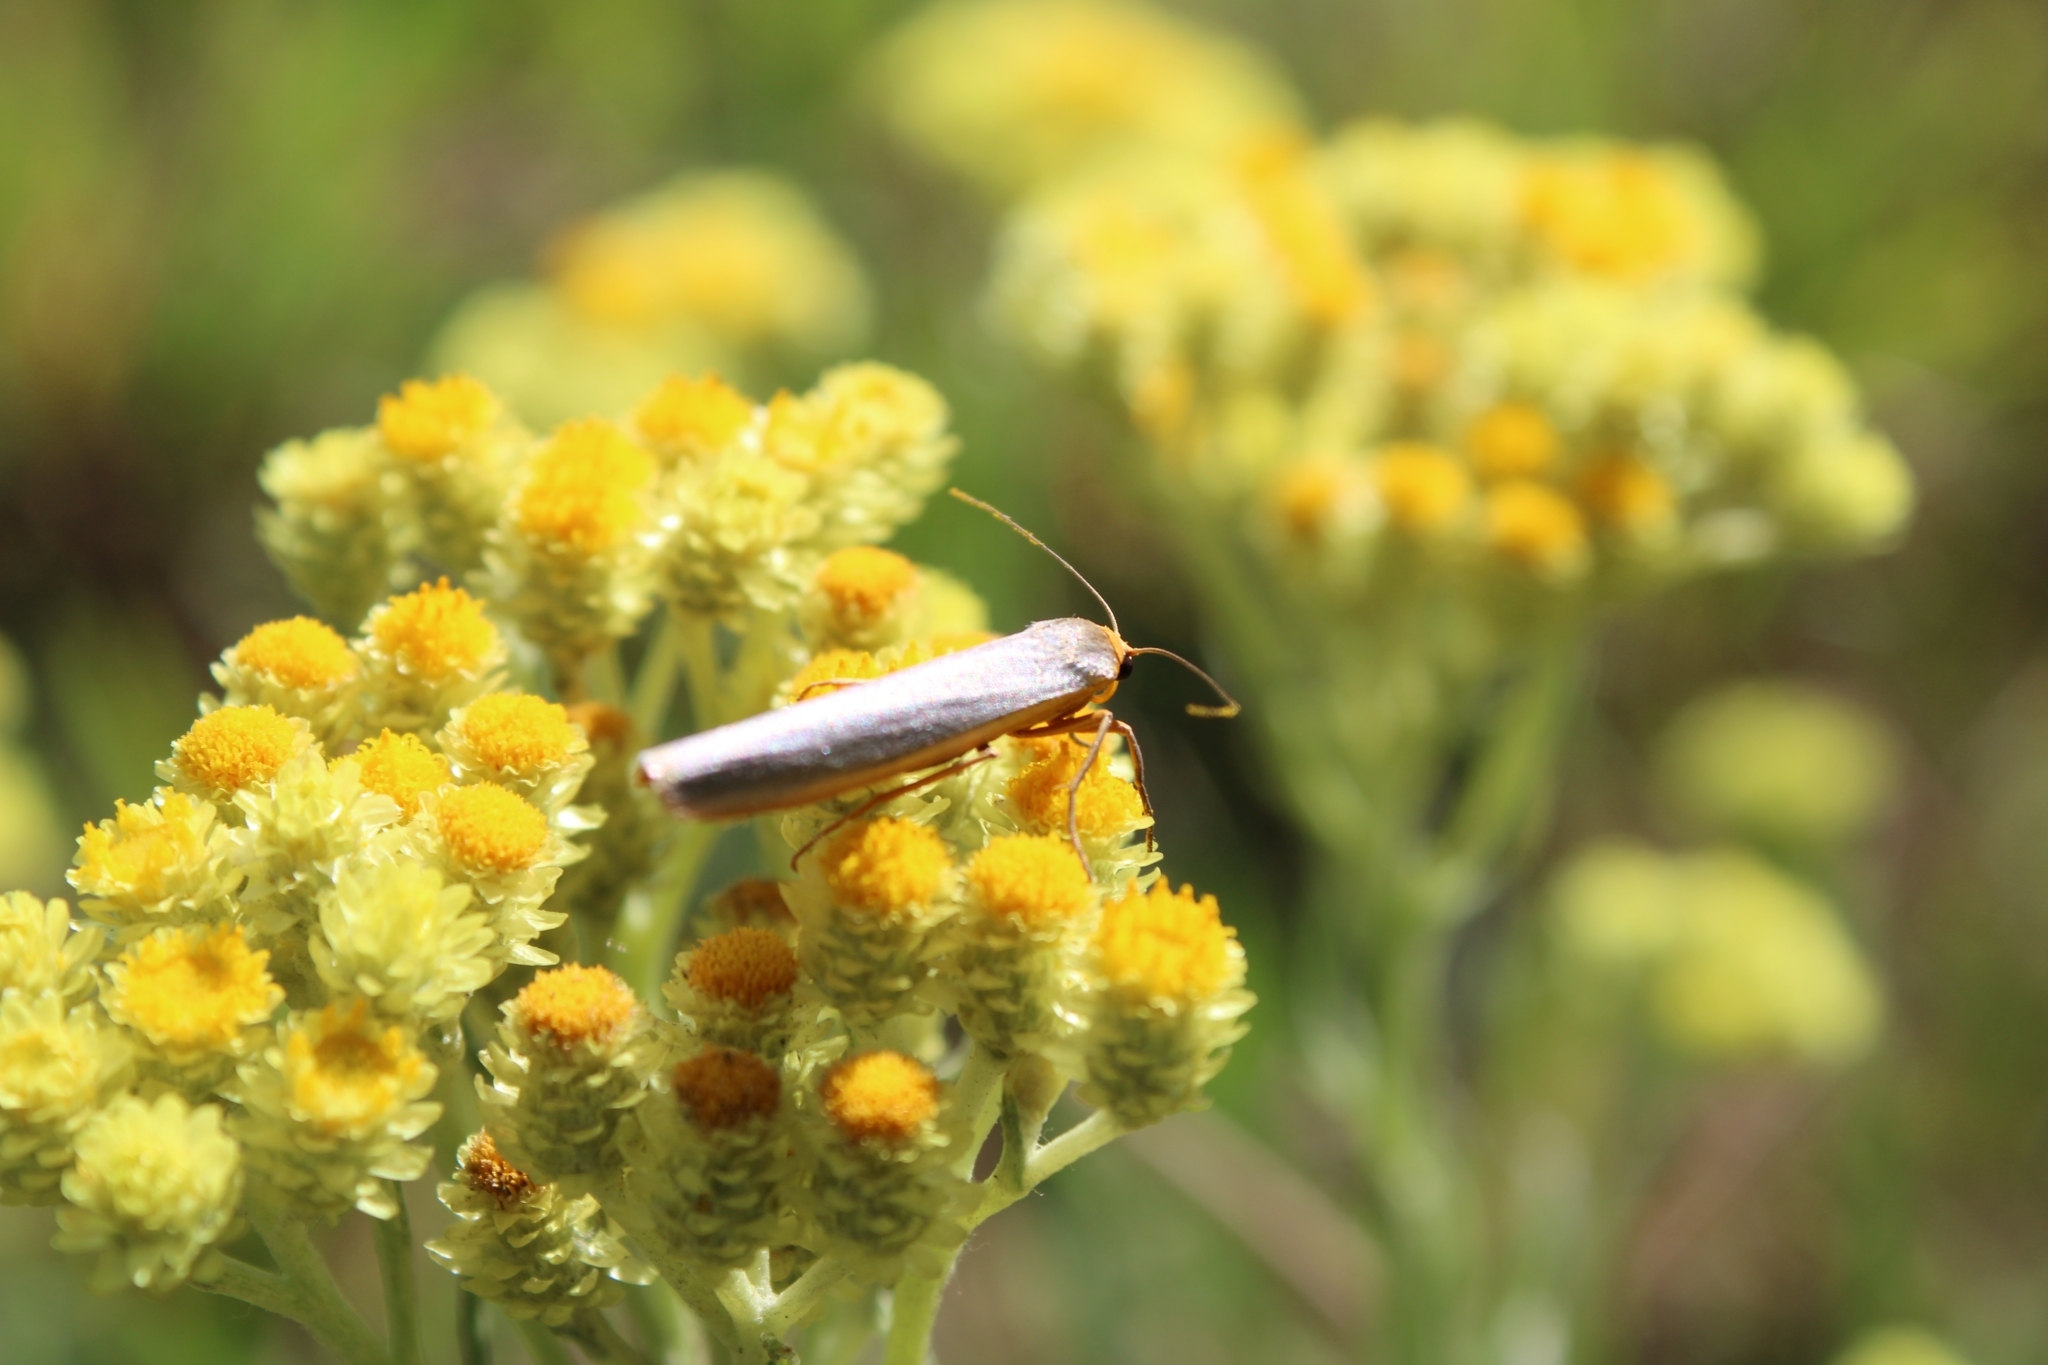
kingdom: Animalia
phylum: Arthropoda
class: Insecta
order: Lepidoptera
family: Erebidae
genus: Manulea
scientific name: Manulea complana
